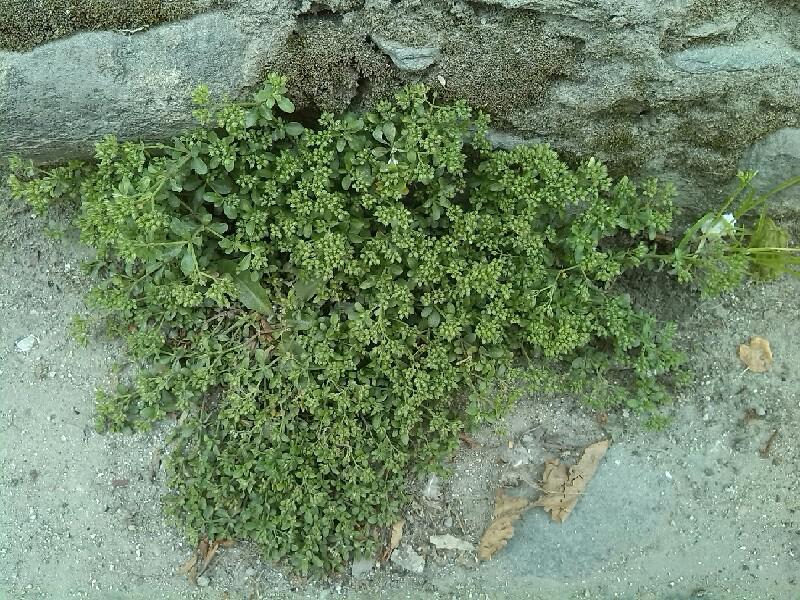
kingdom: Plantae
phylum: Tracheophyta
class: Magnoliopsida
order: Caryophyllales
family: Caryophyllaceae
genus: Polycarpon
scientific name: Polycarpon tetraphyllum
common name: Four-leaved all-seed
